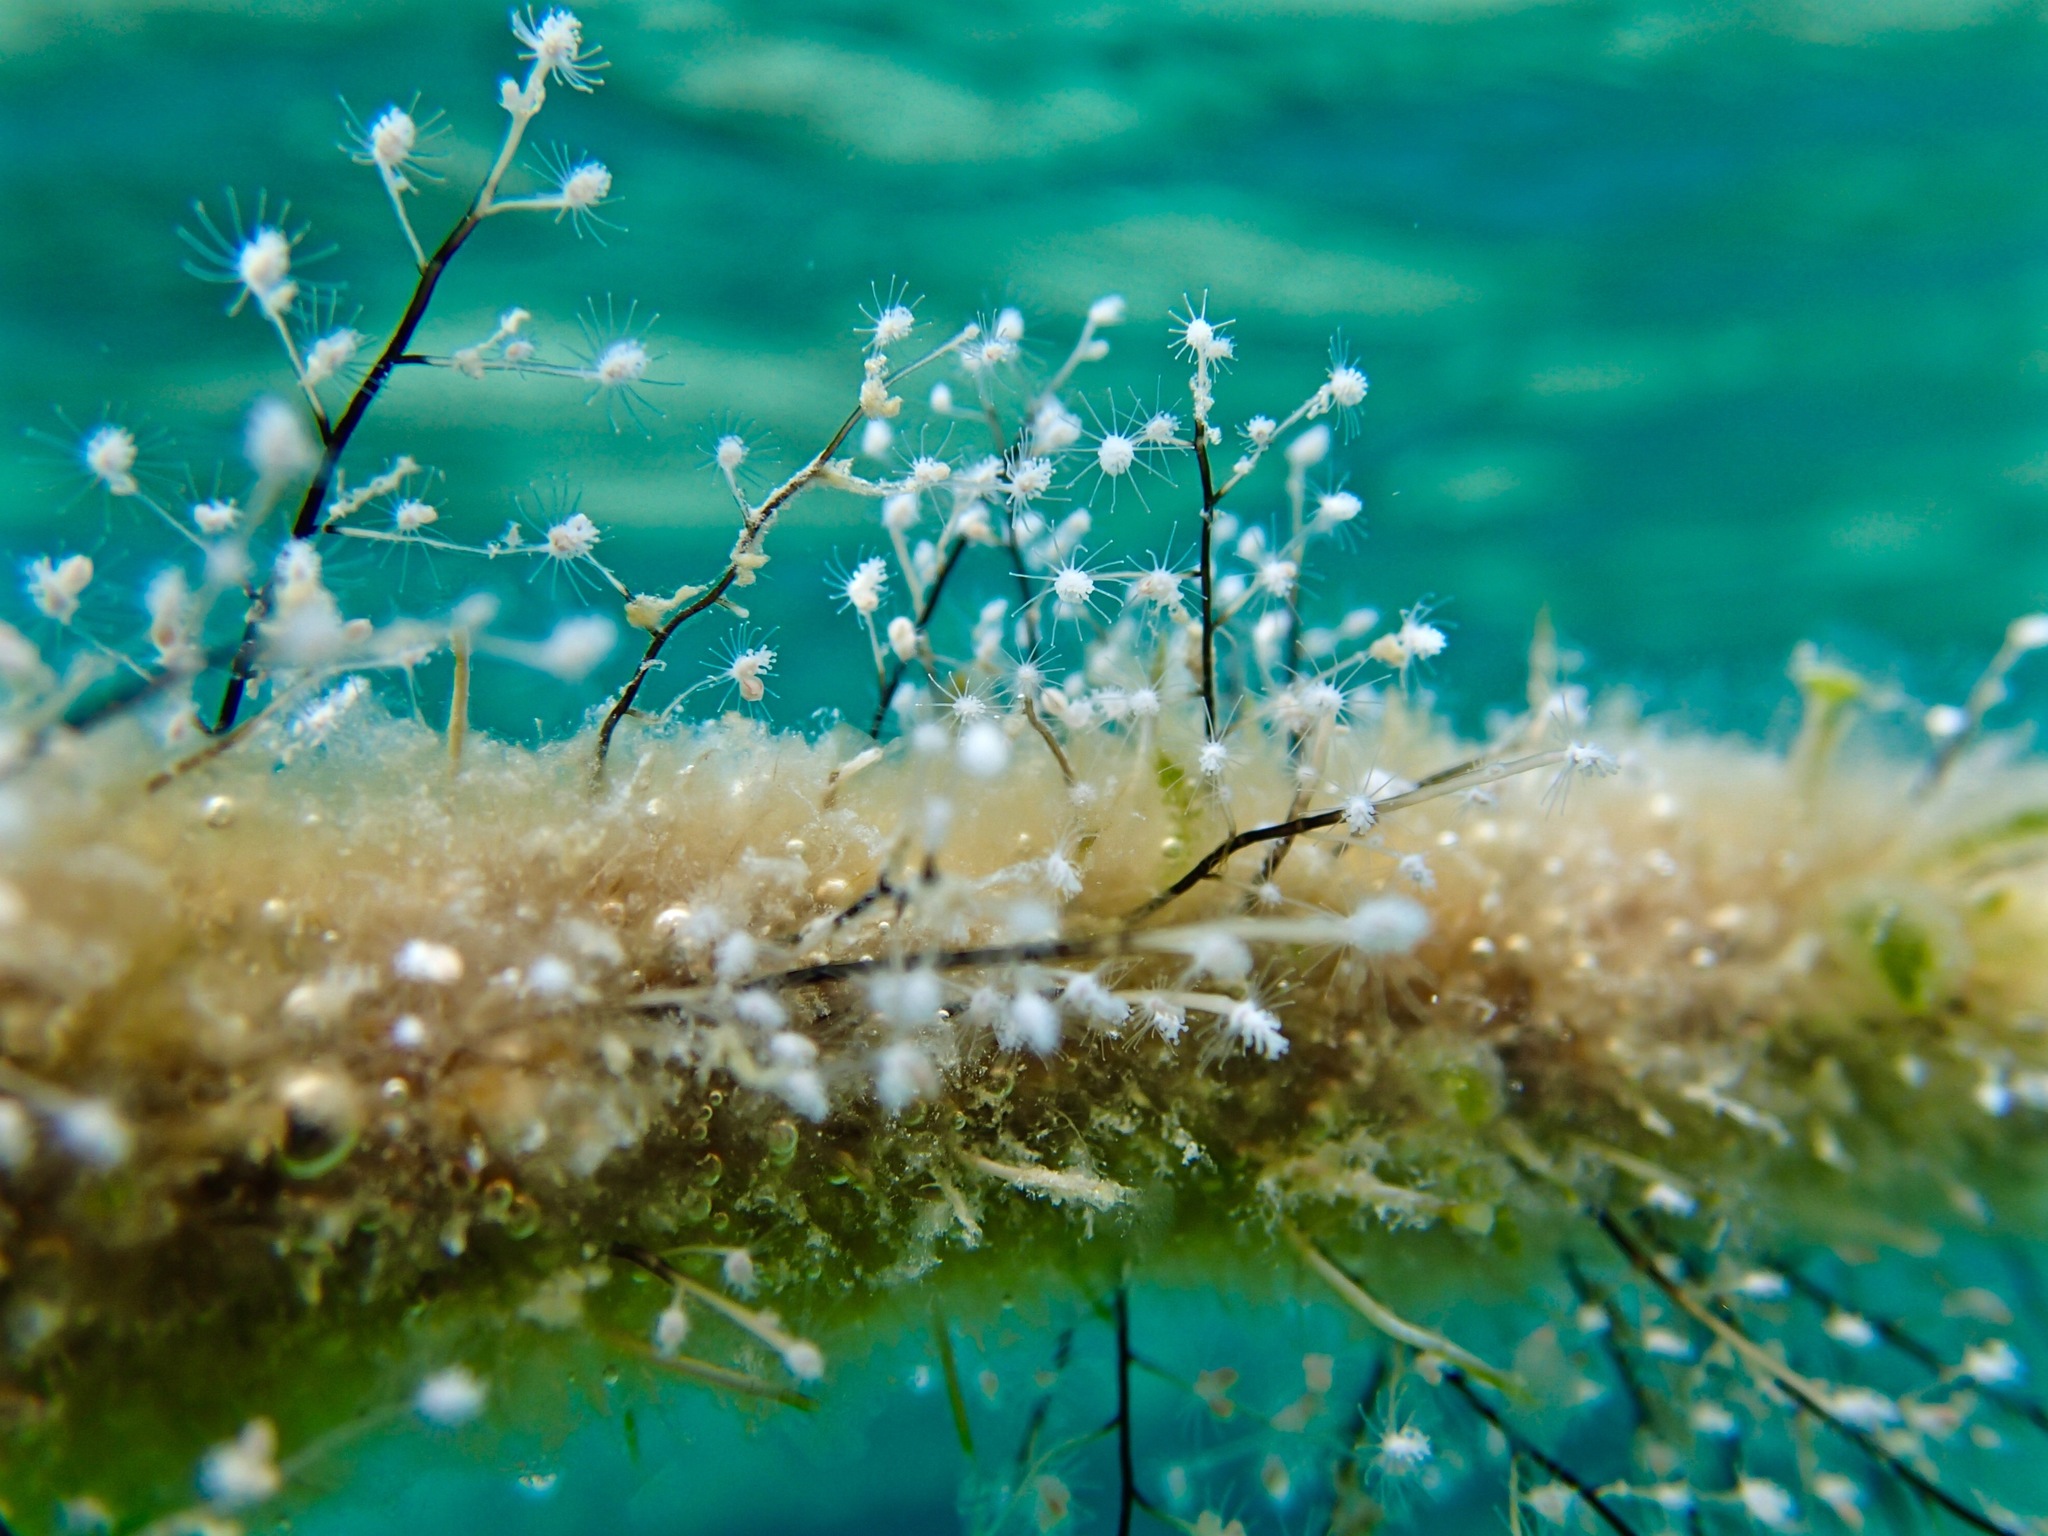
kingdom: Animalia
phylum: Cnidaria
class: Hydrozoa
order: Anthoathecata
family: Pennariidae
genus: Pennaria
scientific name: Pennaria disticha
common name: Feather hydroid
